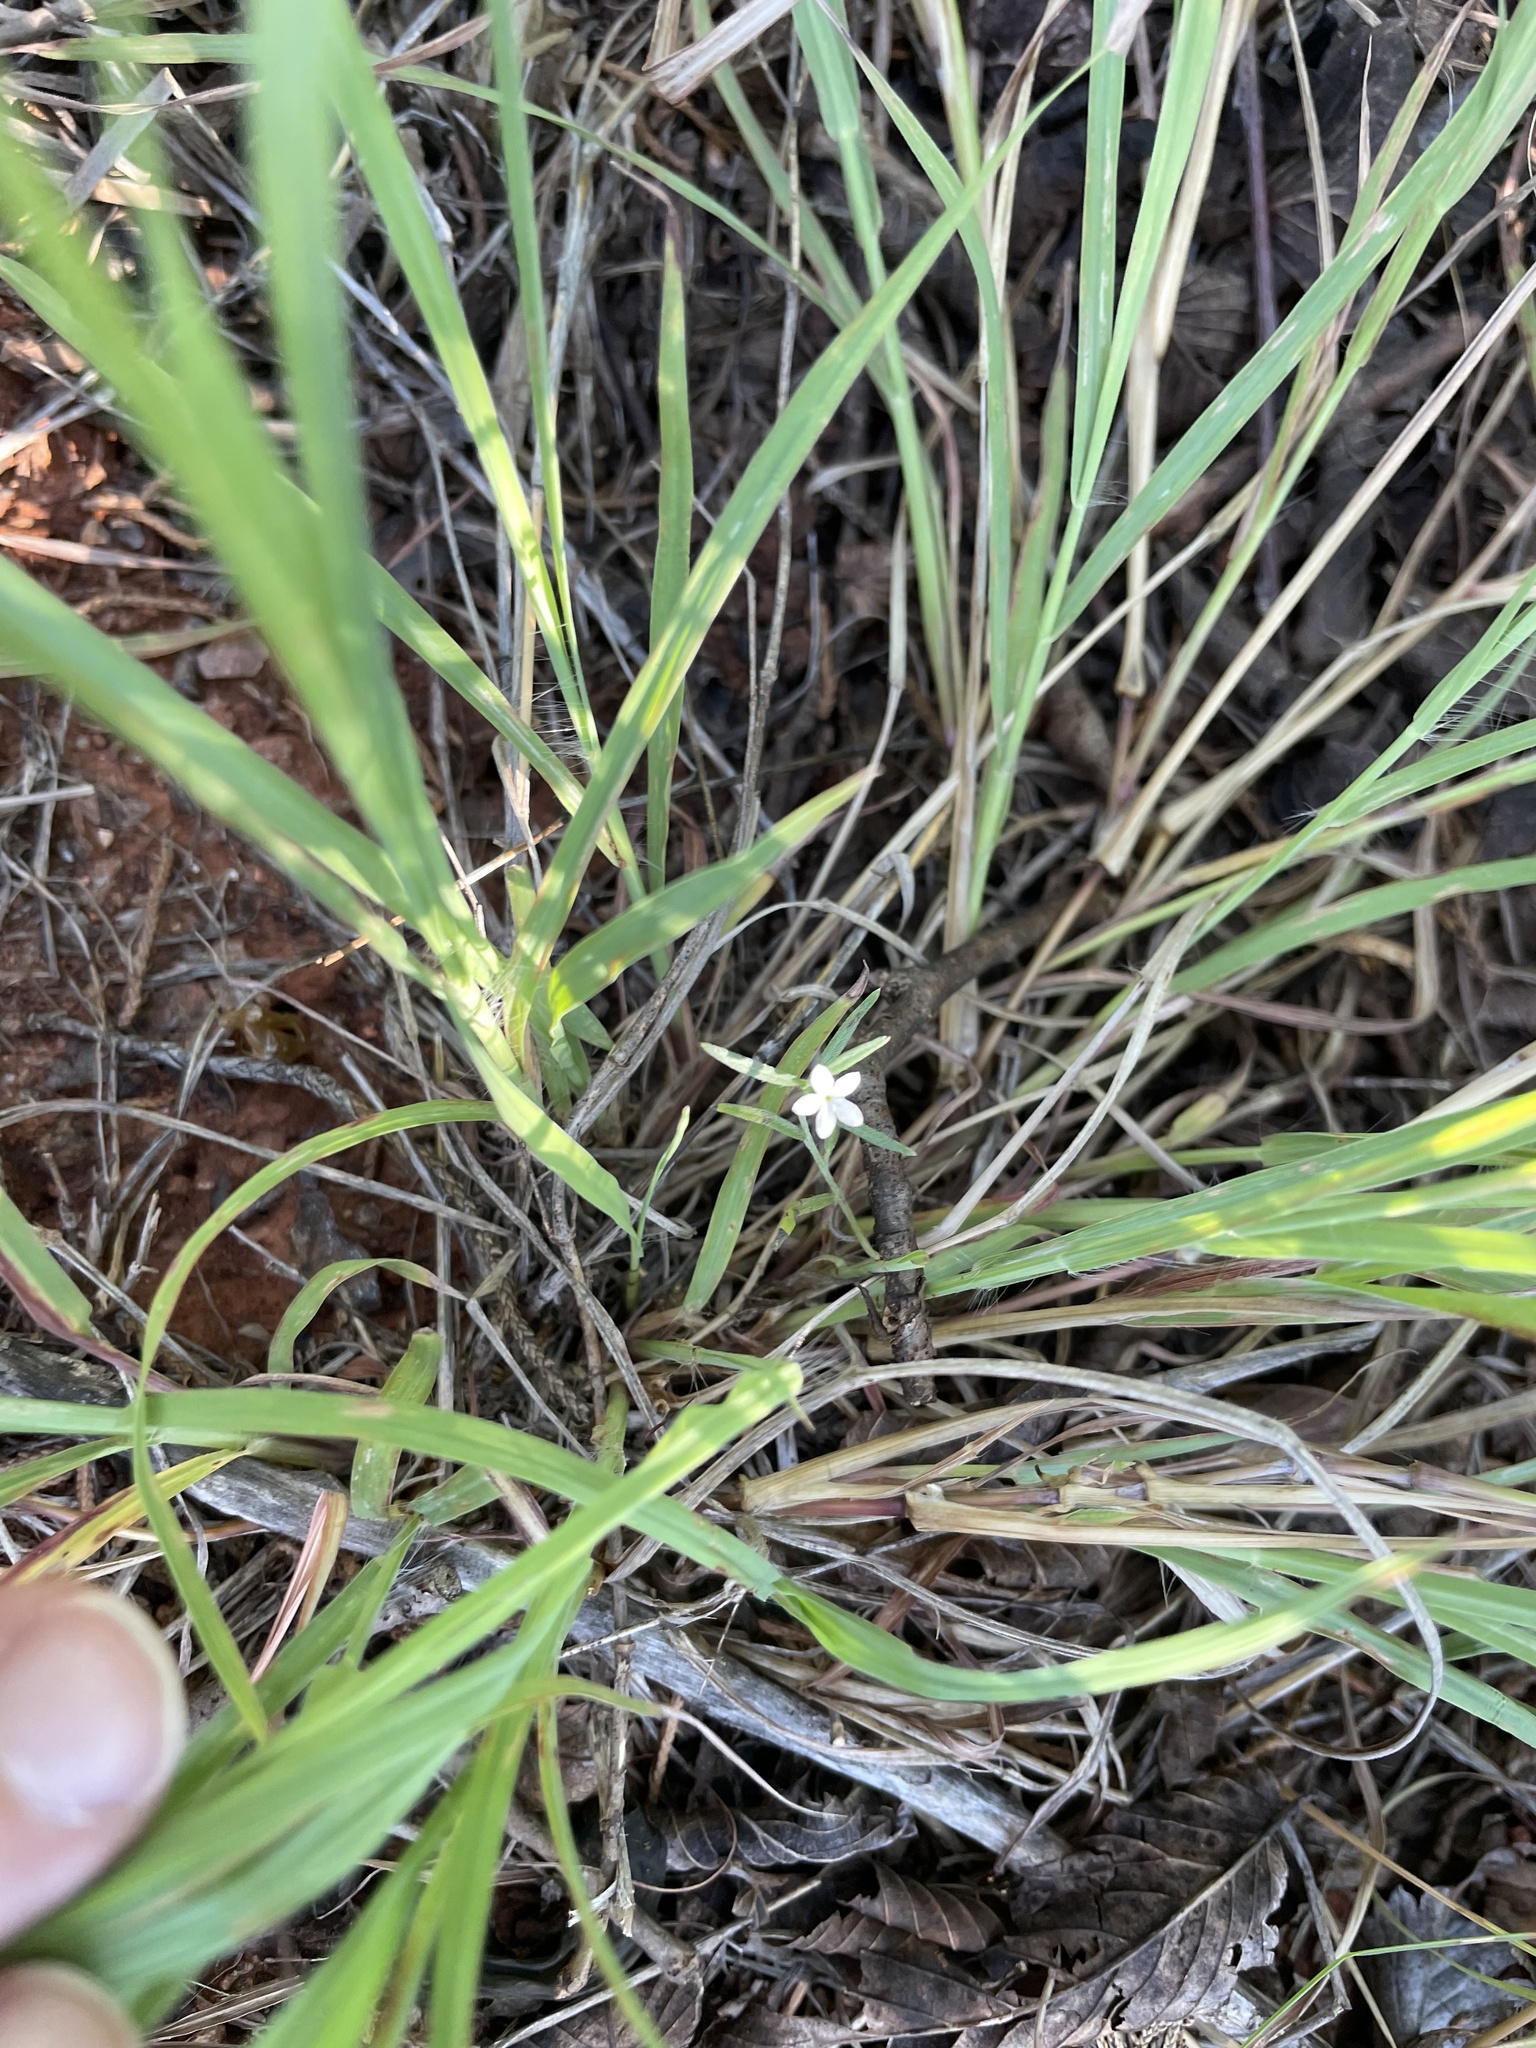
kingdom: Plantae
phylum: Tracheophyta
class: Magnoliopsida
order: Boraginales
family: Heliotropiaceae
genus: Euploca
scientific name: Euploca tenella
